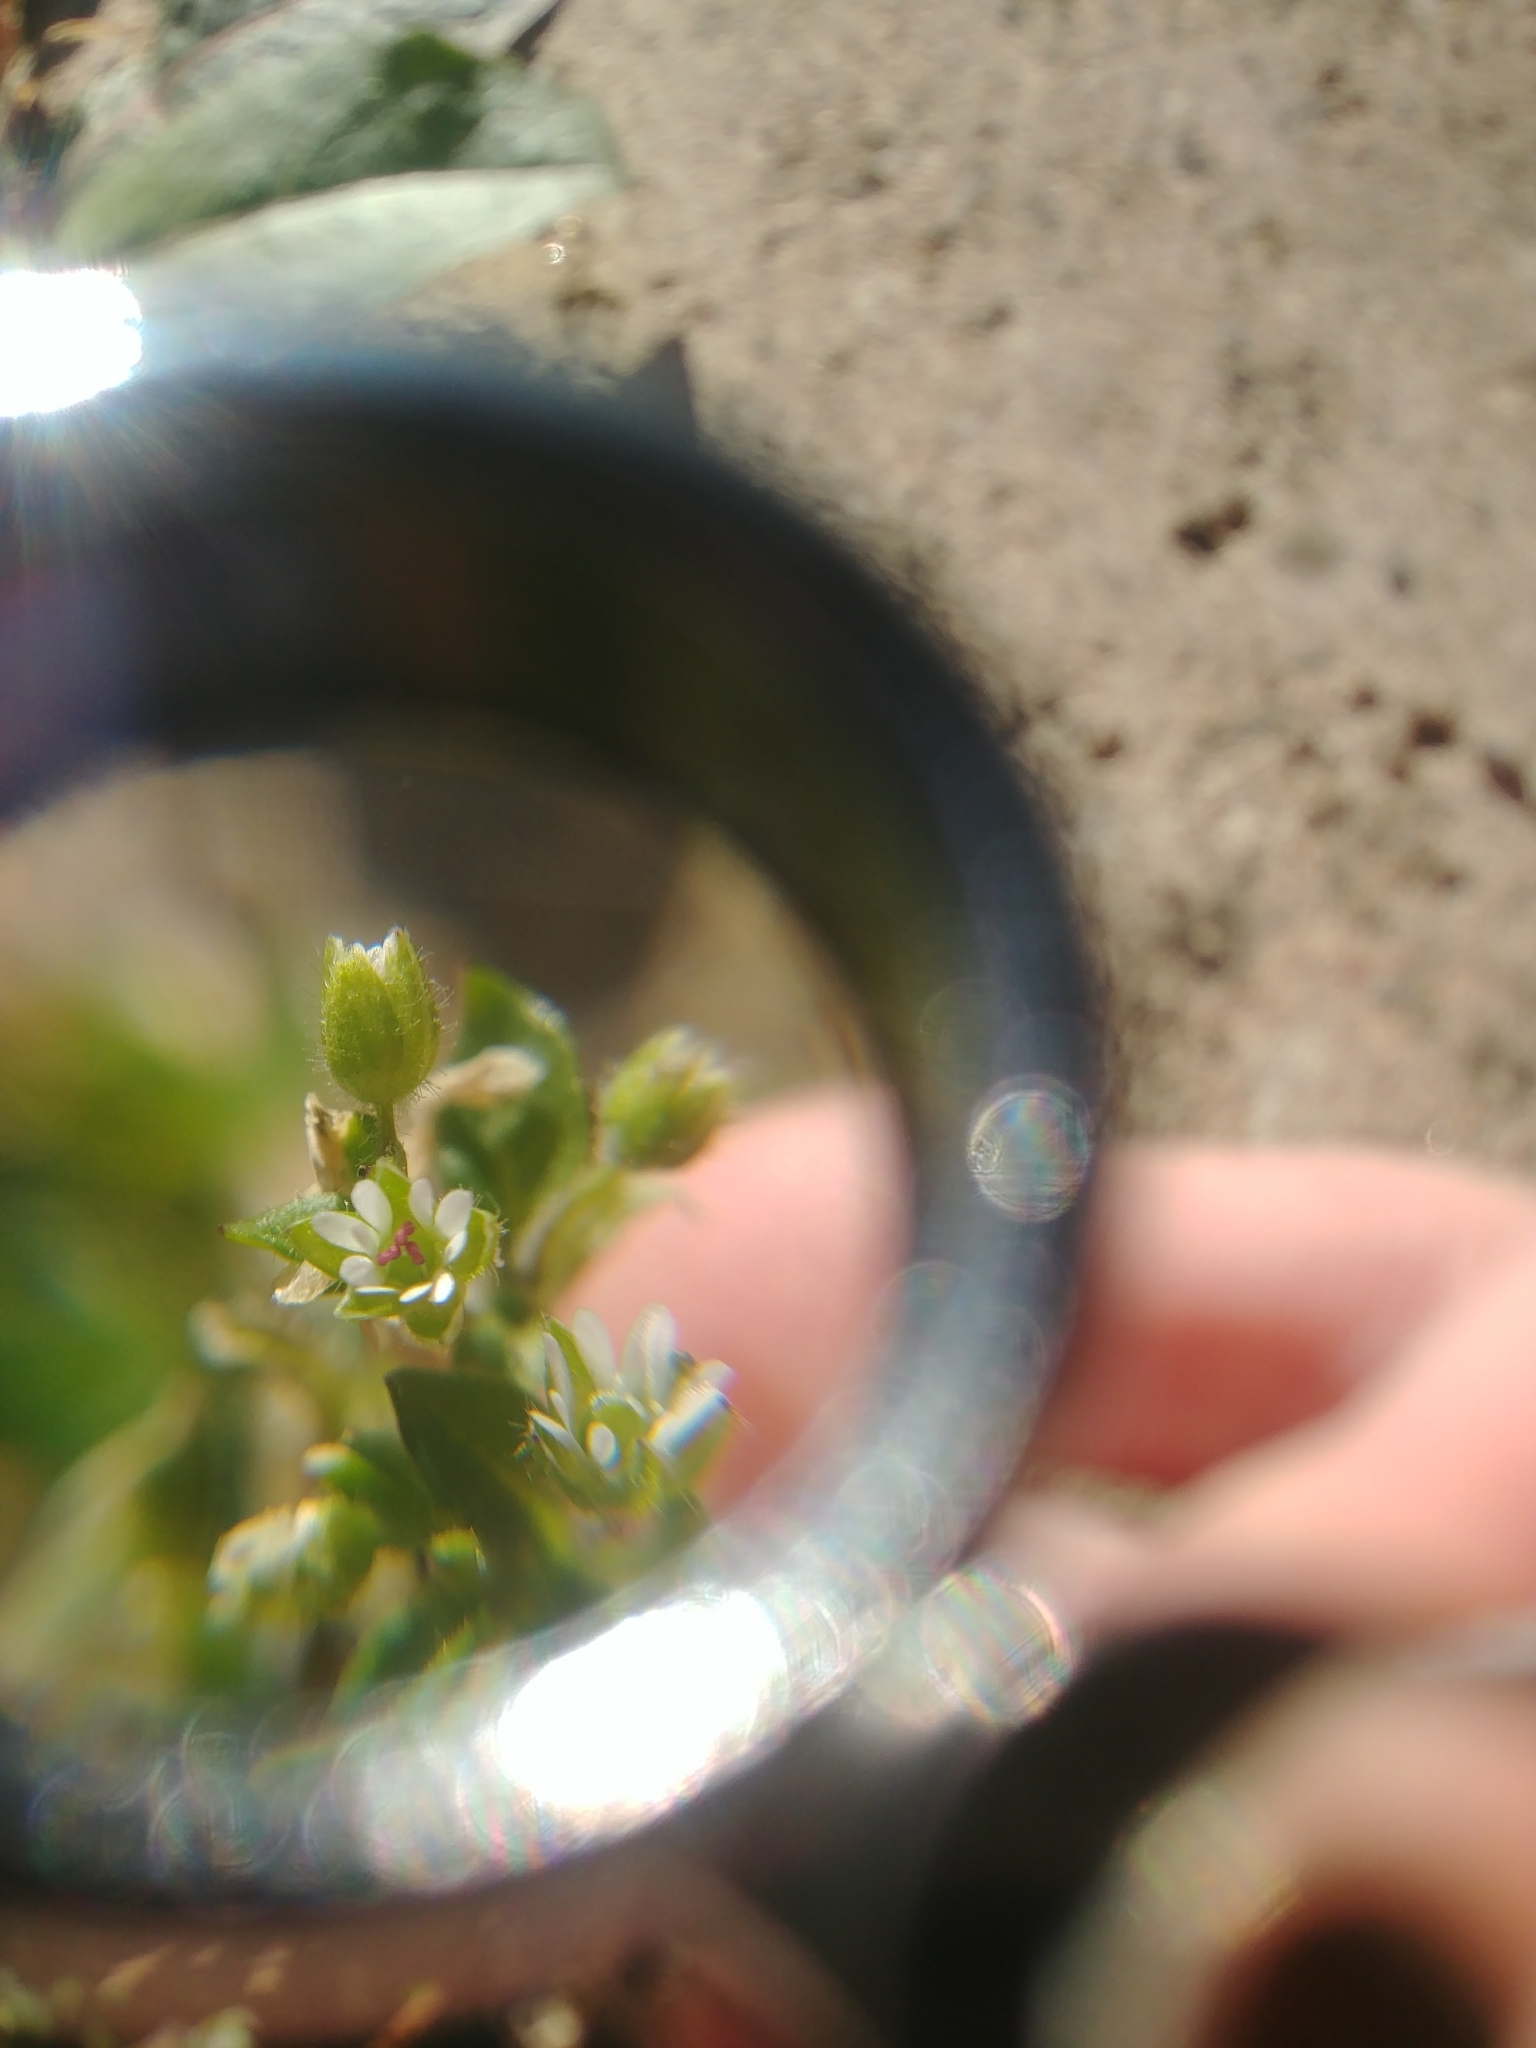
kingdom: Plantae
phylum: Tracheophyta
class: Magnoliopsida
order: Caryophyllales
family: Caryophyllaceae
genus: Stellaria
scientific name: Stellaria media
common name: Common chickweed
